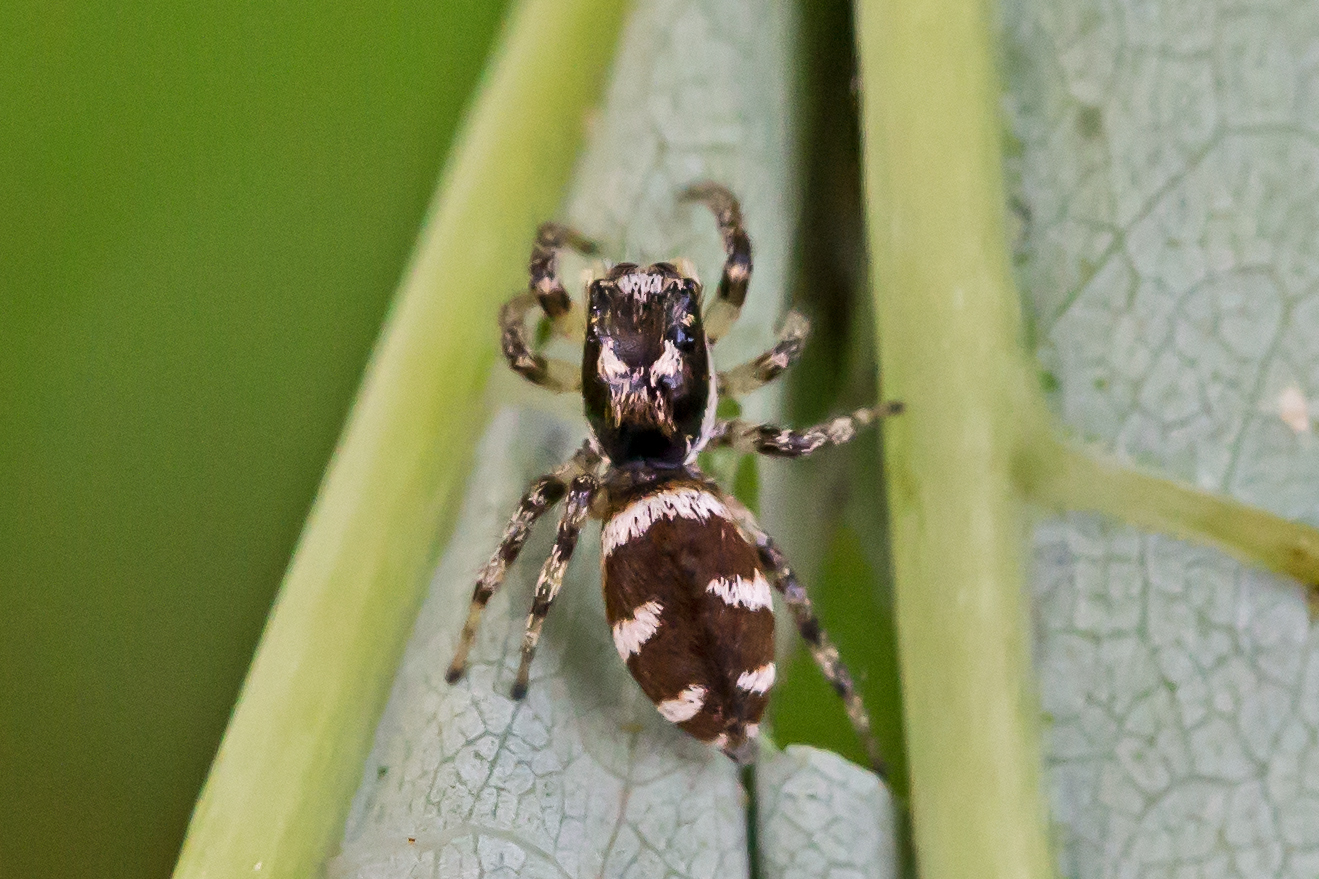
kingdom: Animalia
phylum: Arthropoda
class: Arachnida
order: Araneae
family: Salticidae
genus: Salticus
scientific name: Salticus scenicus
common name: Zebra jumper
